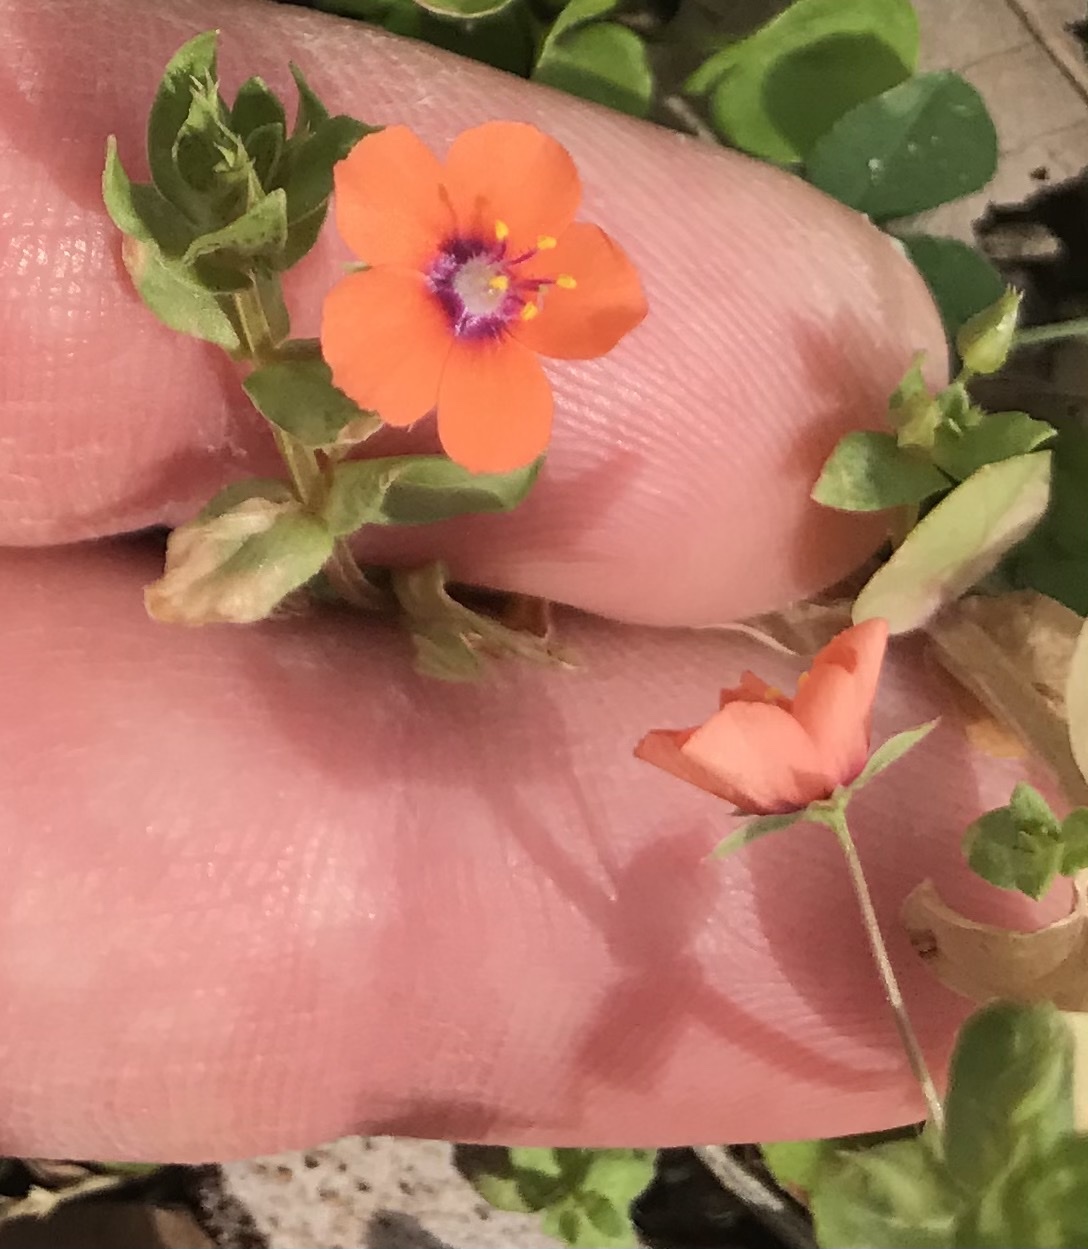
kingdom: Plantae
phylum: Tracheophyta
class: Magnoliopsida
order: Ericales
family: Primulaceae
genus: Lysimachia
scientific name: Lysimachia arvensis
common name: Scarlet pimpernel
